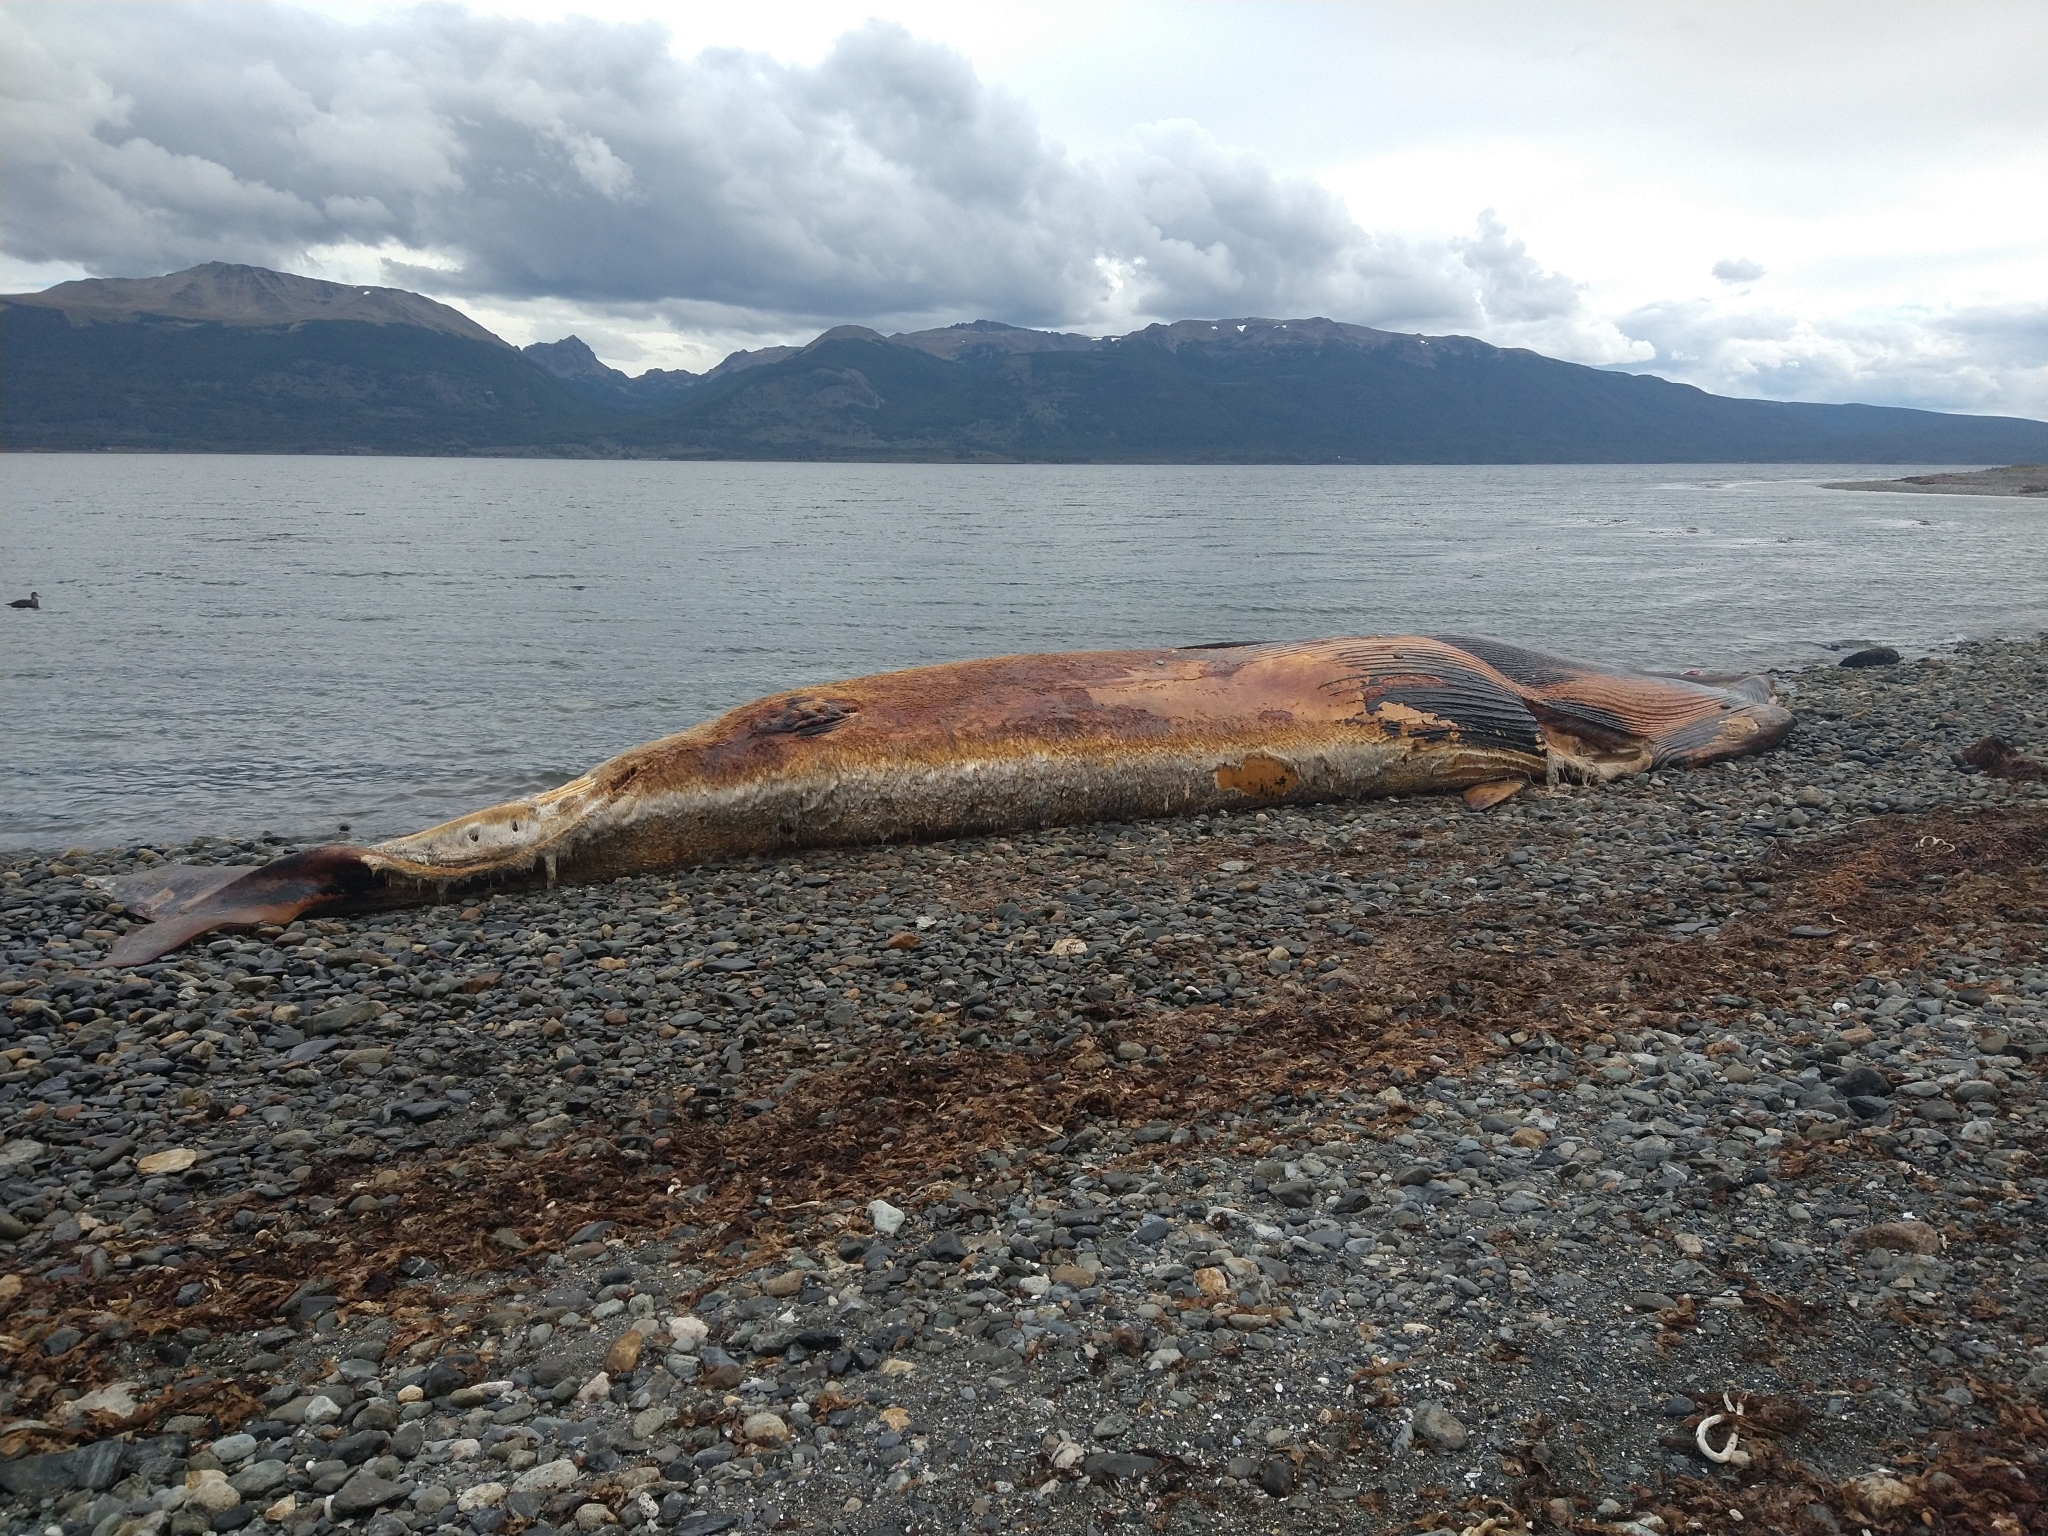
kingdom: Animalia
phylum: Chordata
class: Mammalia
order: Cetacea
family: Balaenopteridae
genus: Balaenoptera
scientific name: Balaenoptera borealis
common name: Sei whale
